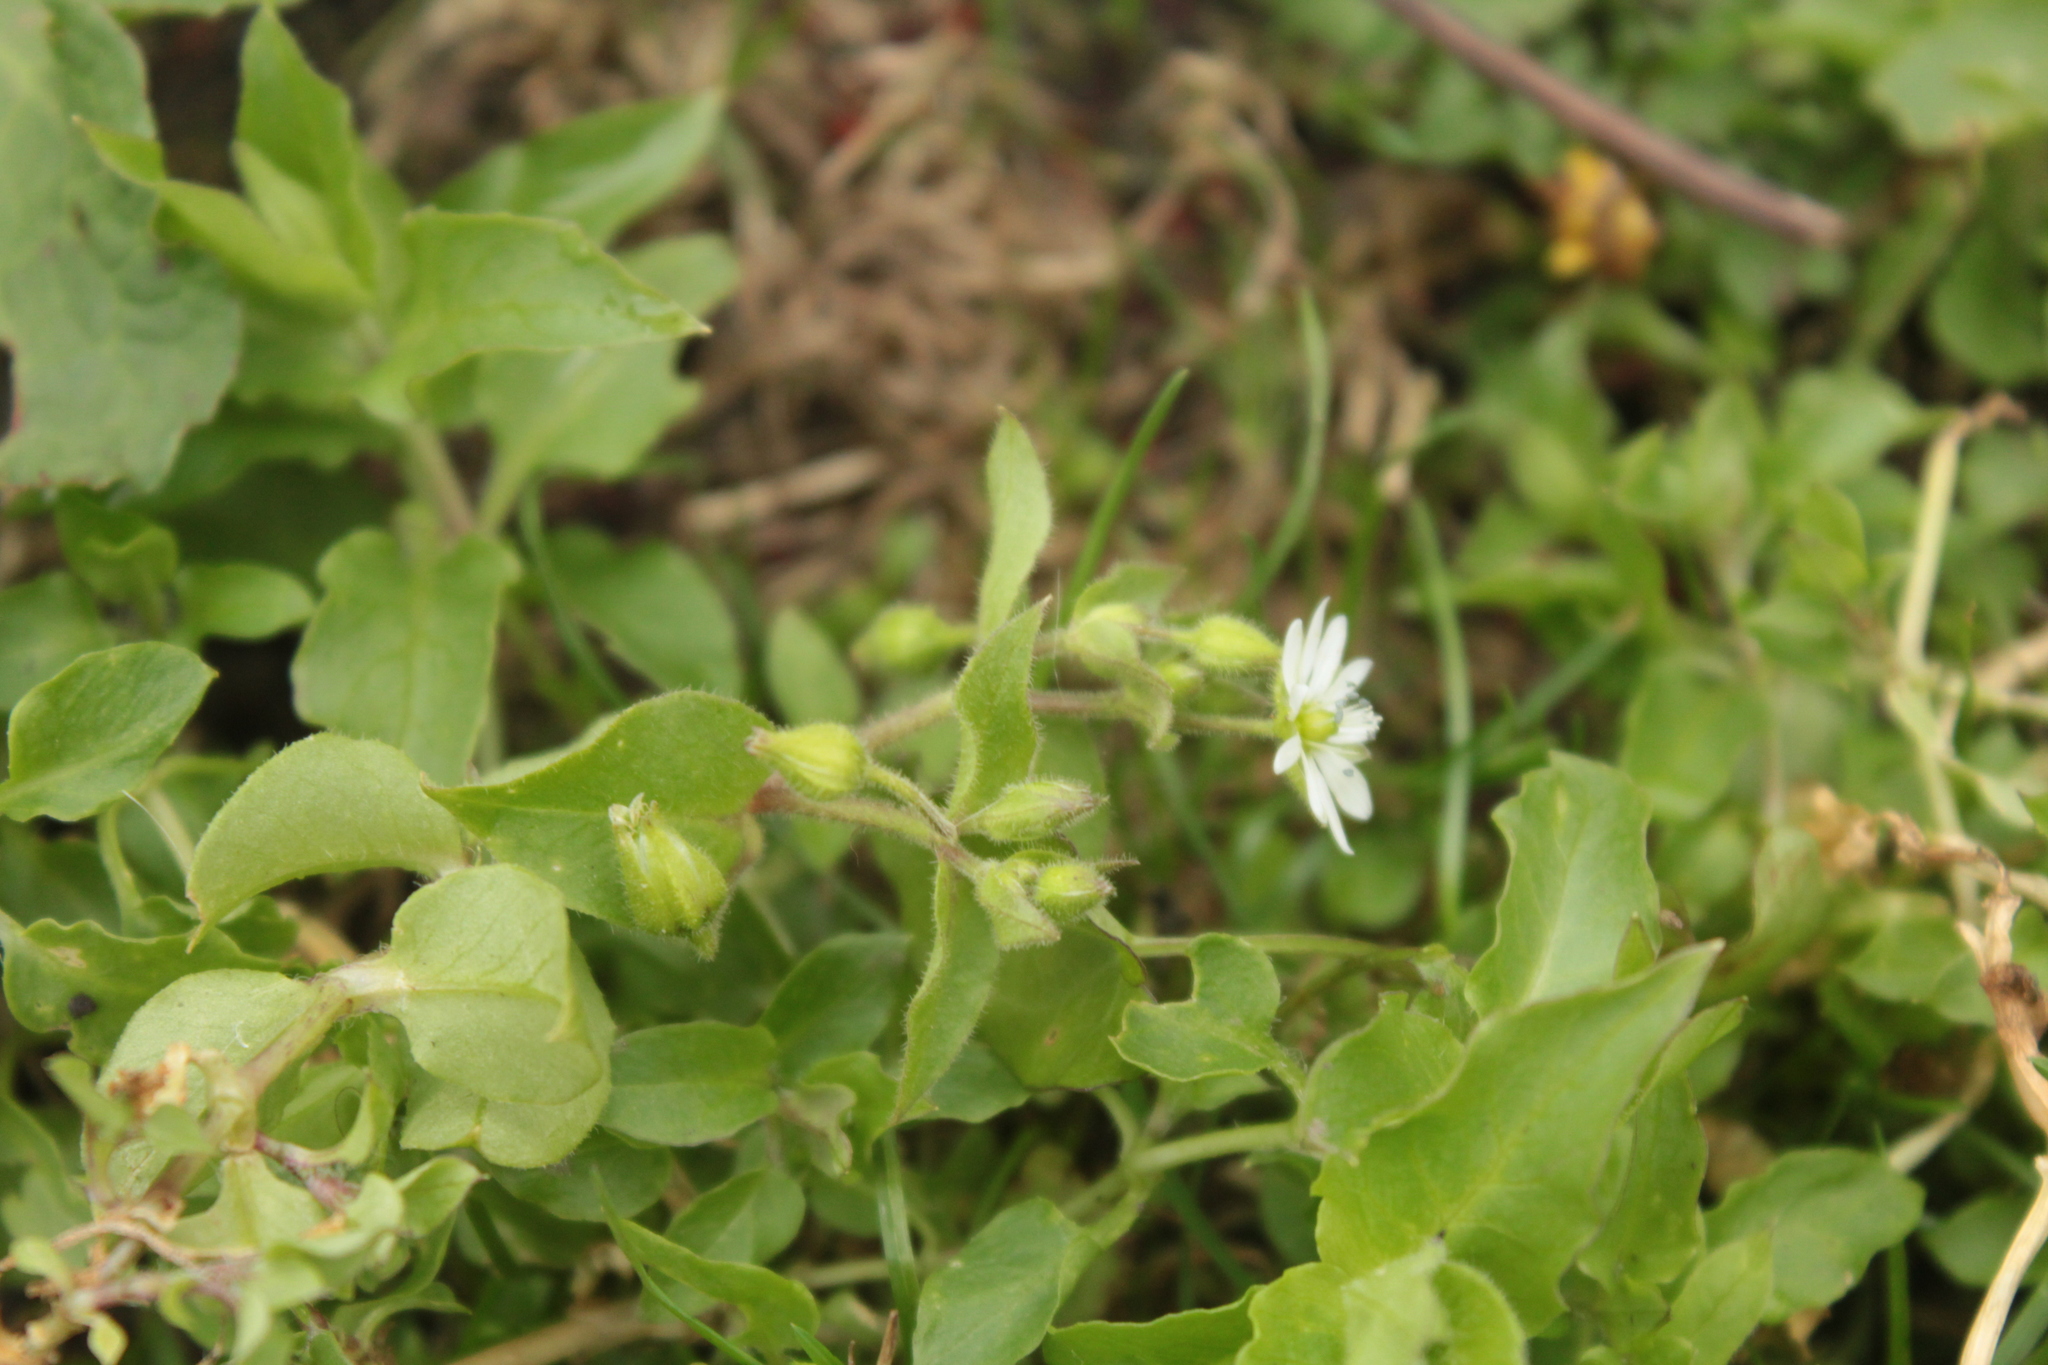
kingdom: Plantae
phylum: Tracheophyta
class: Magnoliopsida
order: Caryophyllales
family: Caryophyllaceae
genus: Stellaria
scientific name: Stellaria aquatica
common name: Water chickweed
